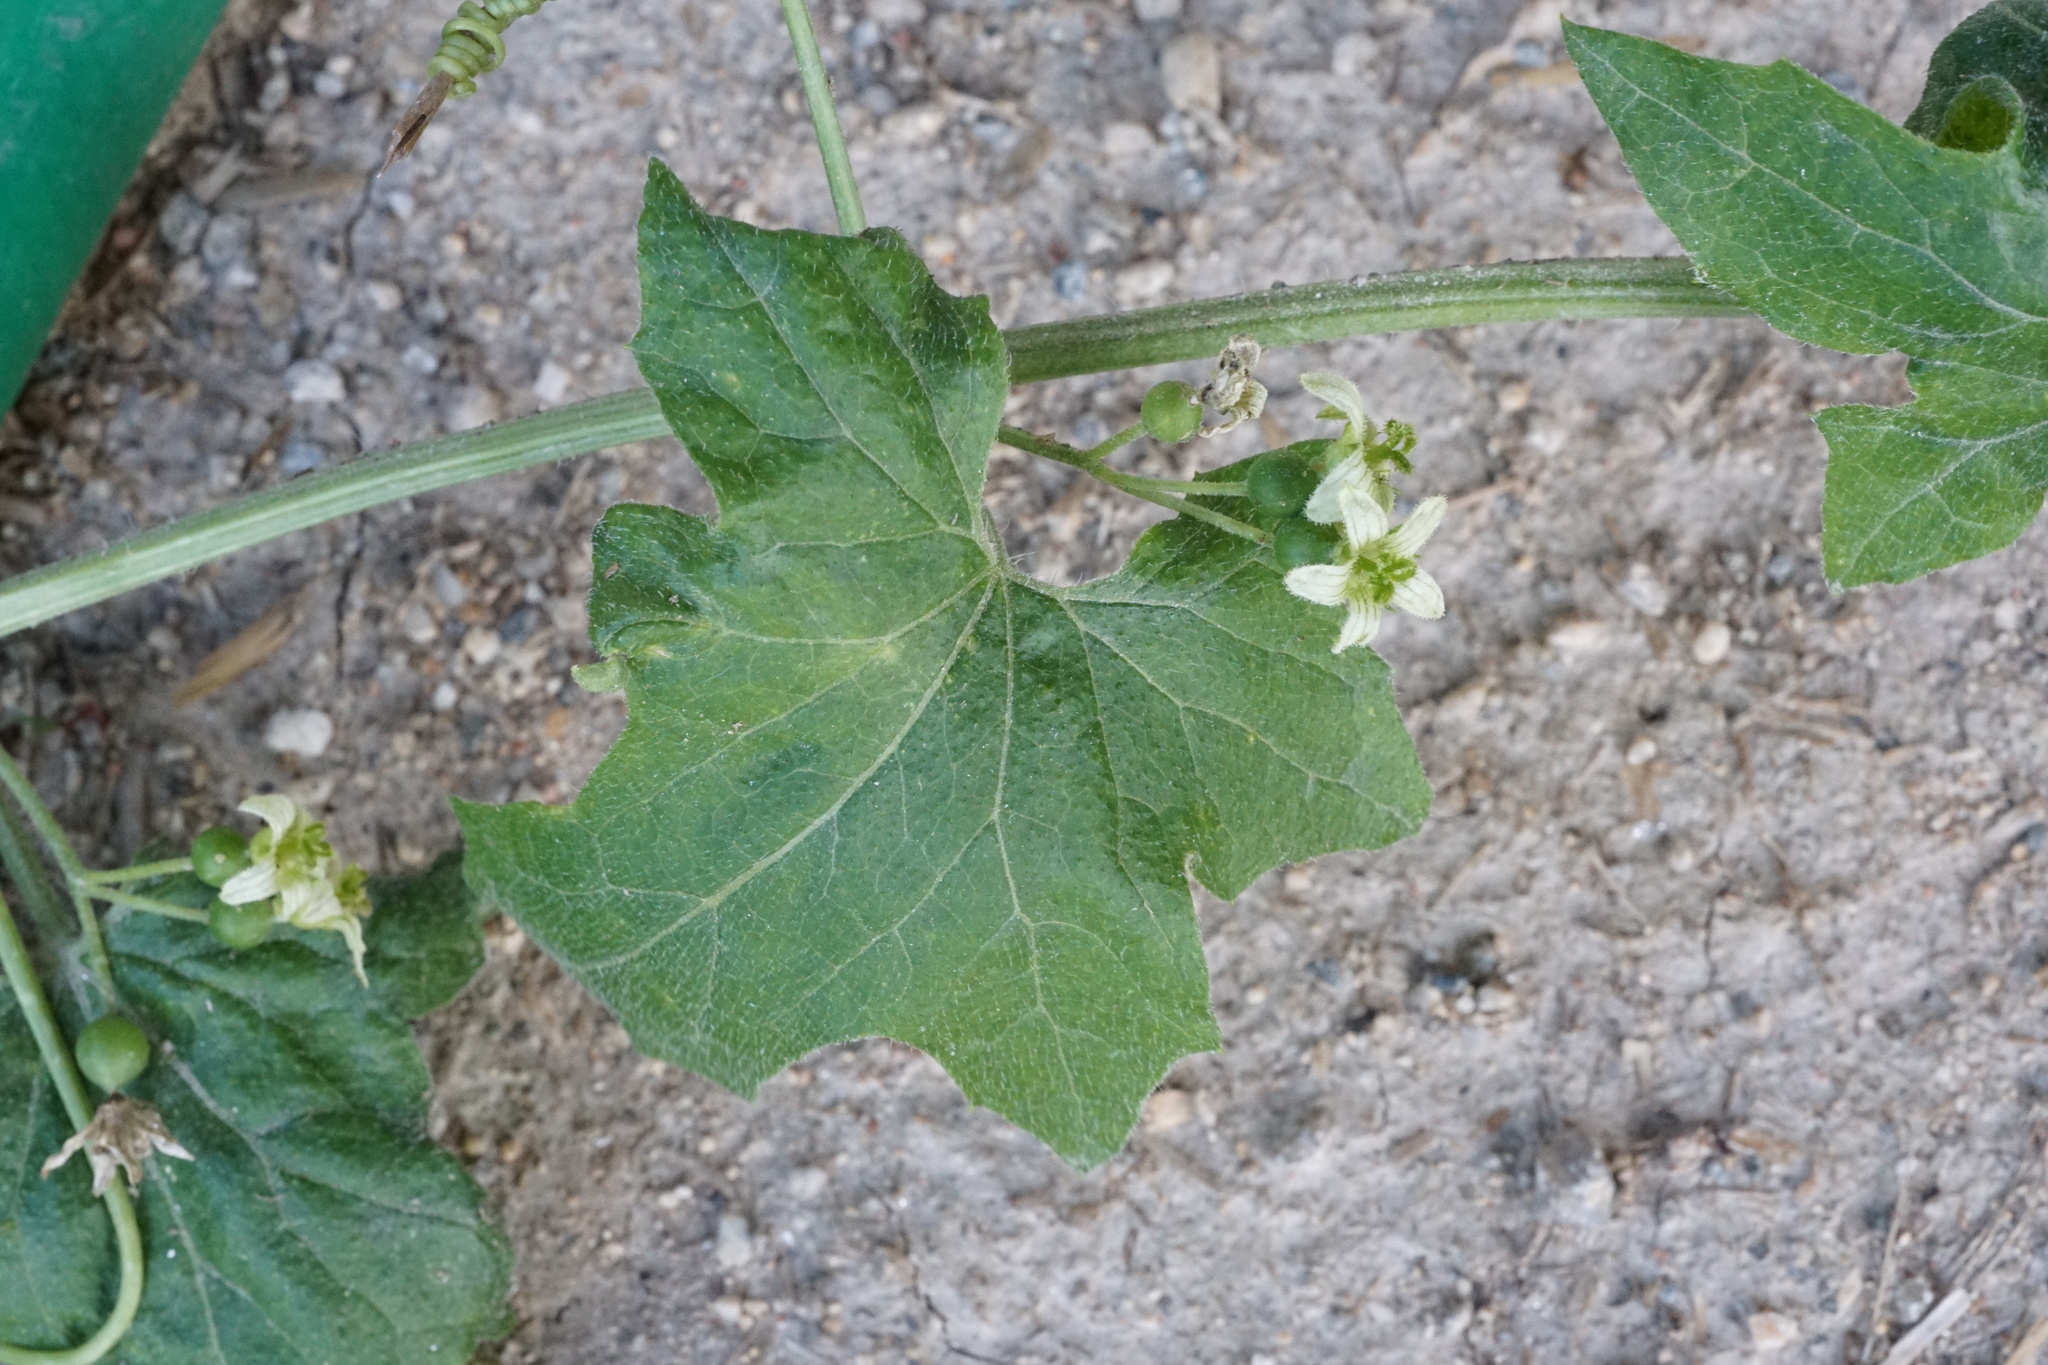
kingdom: Plantae
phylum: Tracheophyta
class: Magnoliopsida
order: Cucurbitales
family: Cucurbitaceae
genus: Bryonia
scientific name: Bryonia dioica
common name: White bryony
